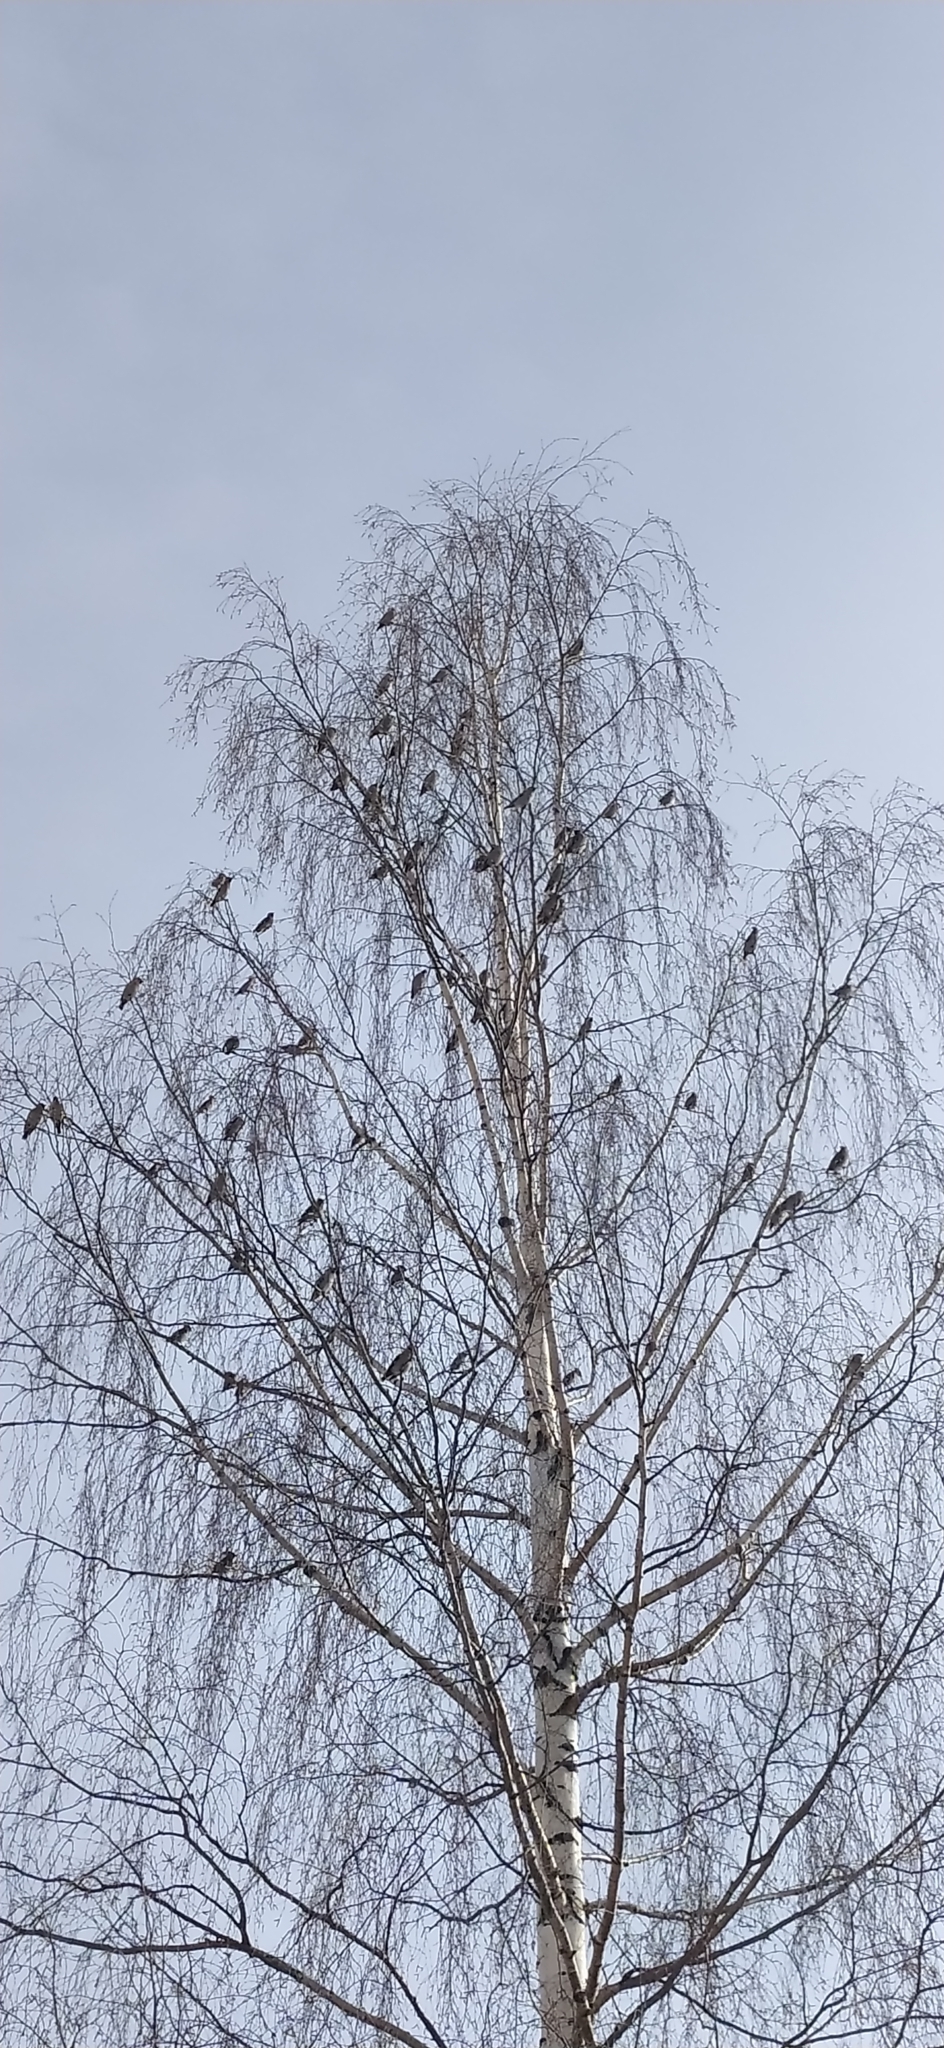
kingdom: Animalia
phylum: Chordata
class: Aves
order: Passeriformes
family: Bombycillidae
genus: Bombycilla
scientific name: Bombycilla garrulus
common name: Bohemian waxwing
